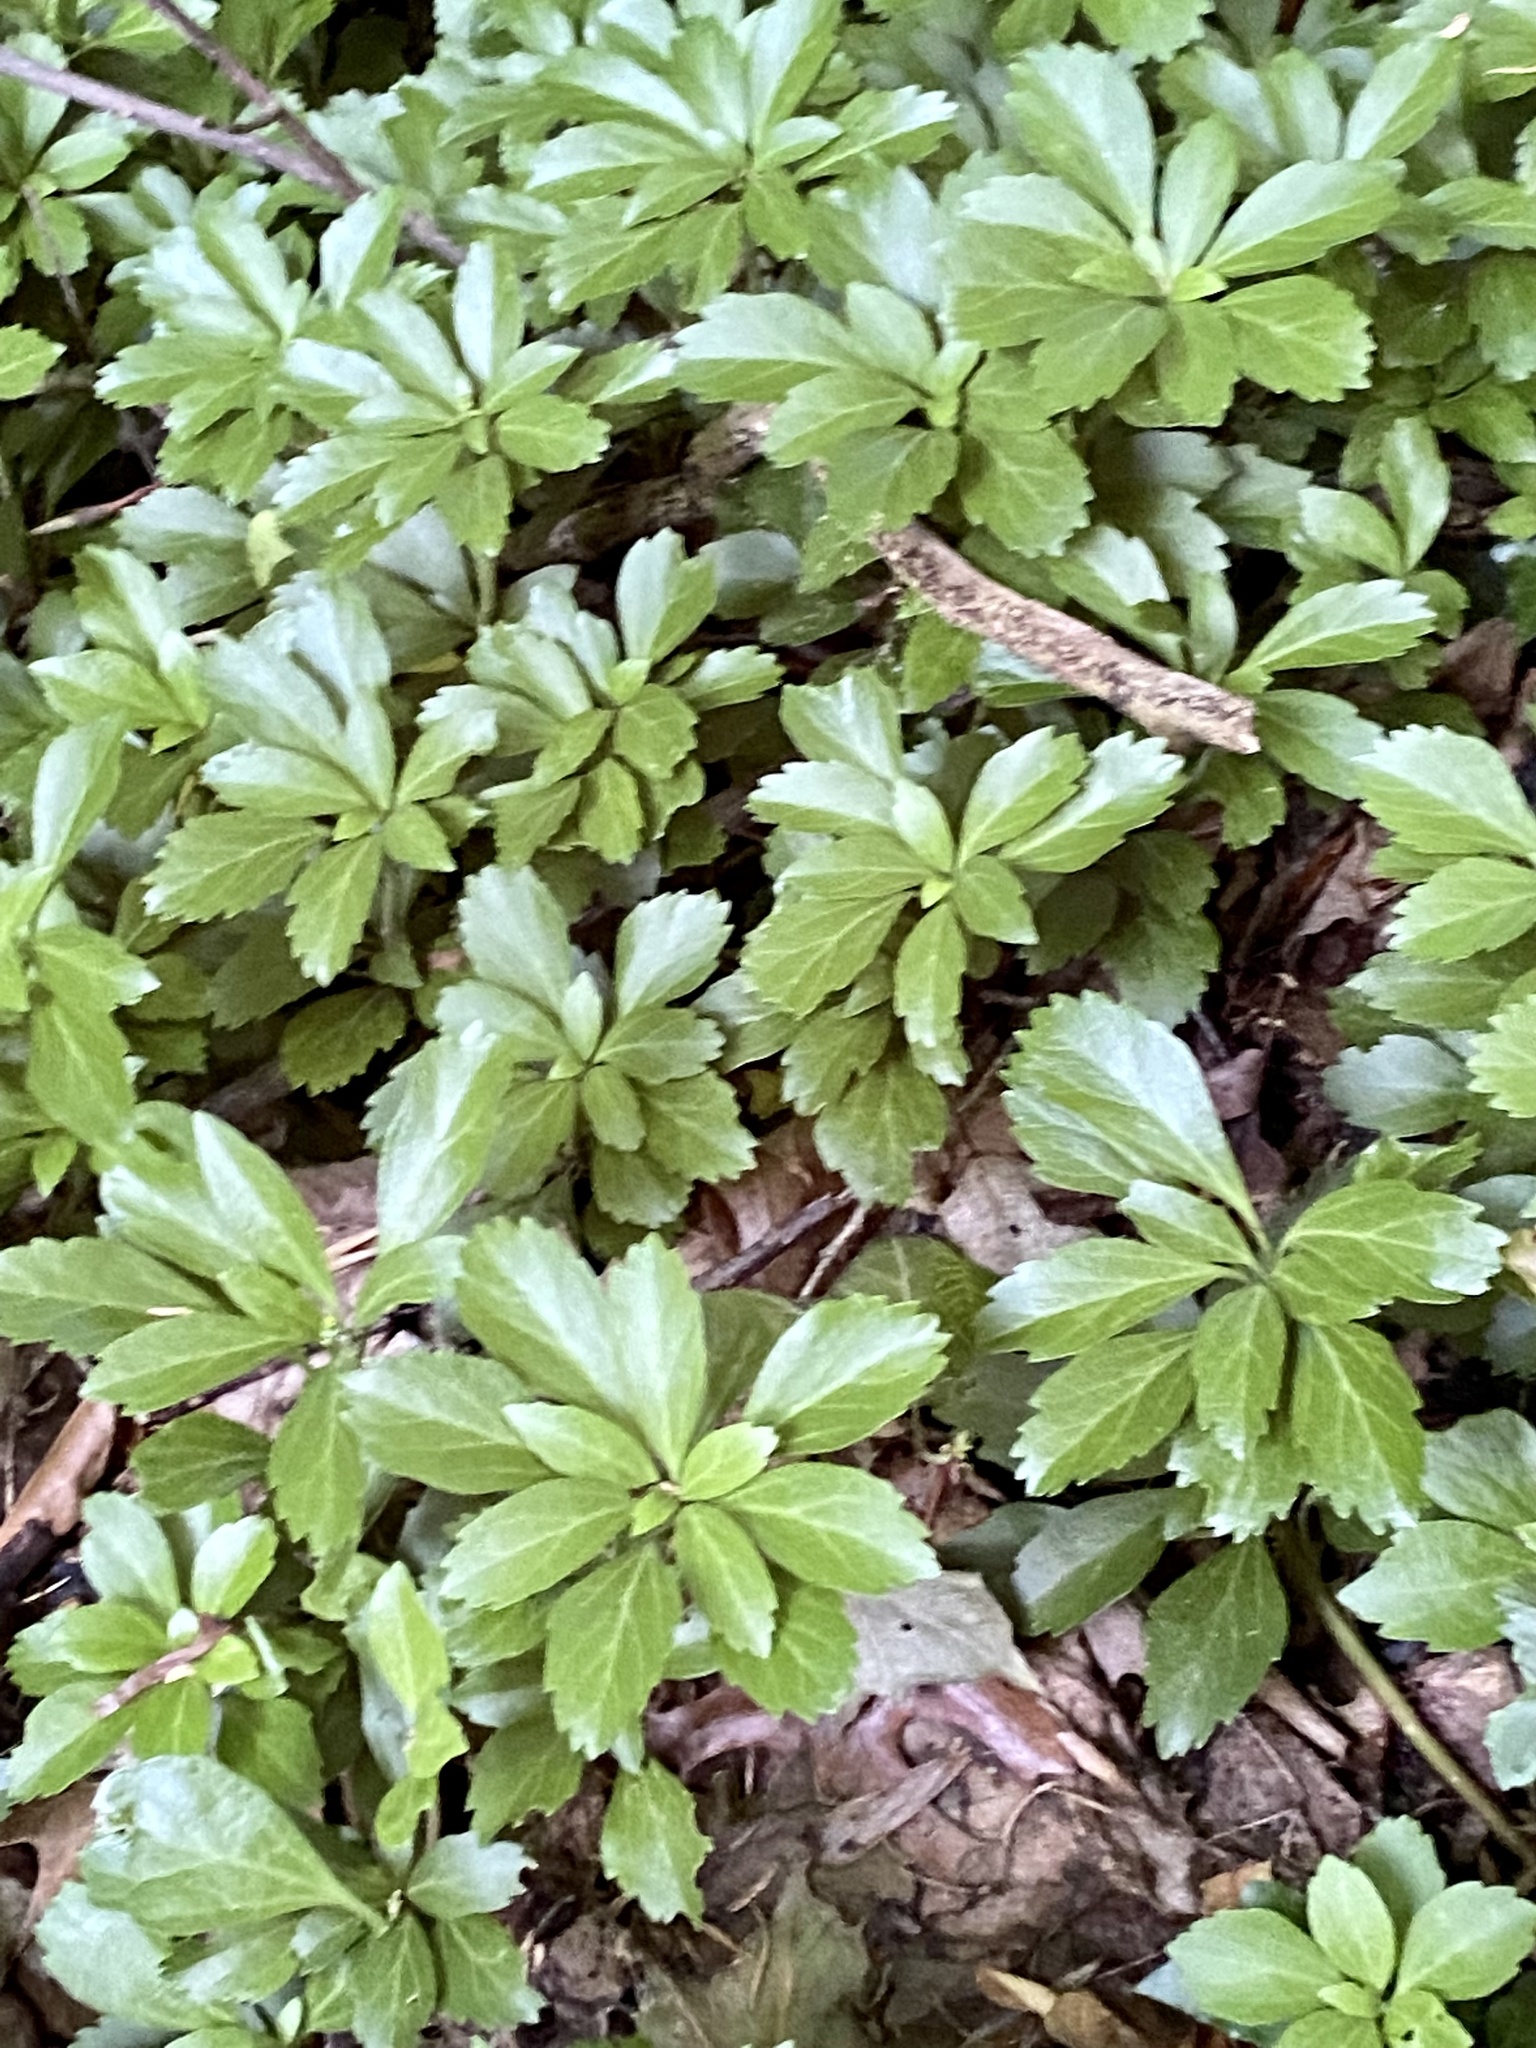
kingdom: Plantae
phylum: Tracheophyta
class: Magnoliopsida
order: Buxales
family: Buxaceae
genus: Pachysandra
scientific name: Pachysandra terminalis
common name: Japanese pachysandra
